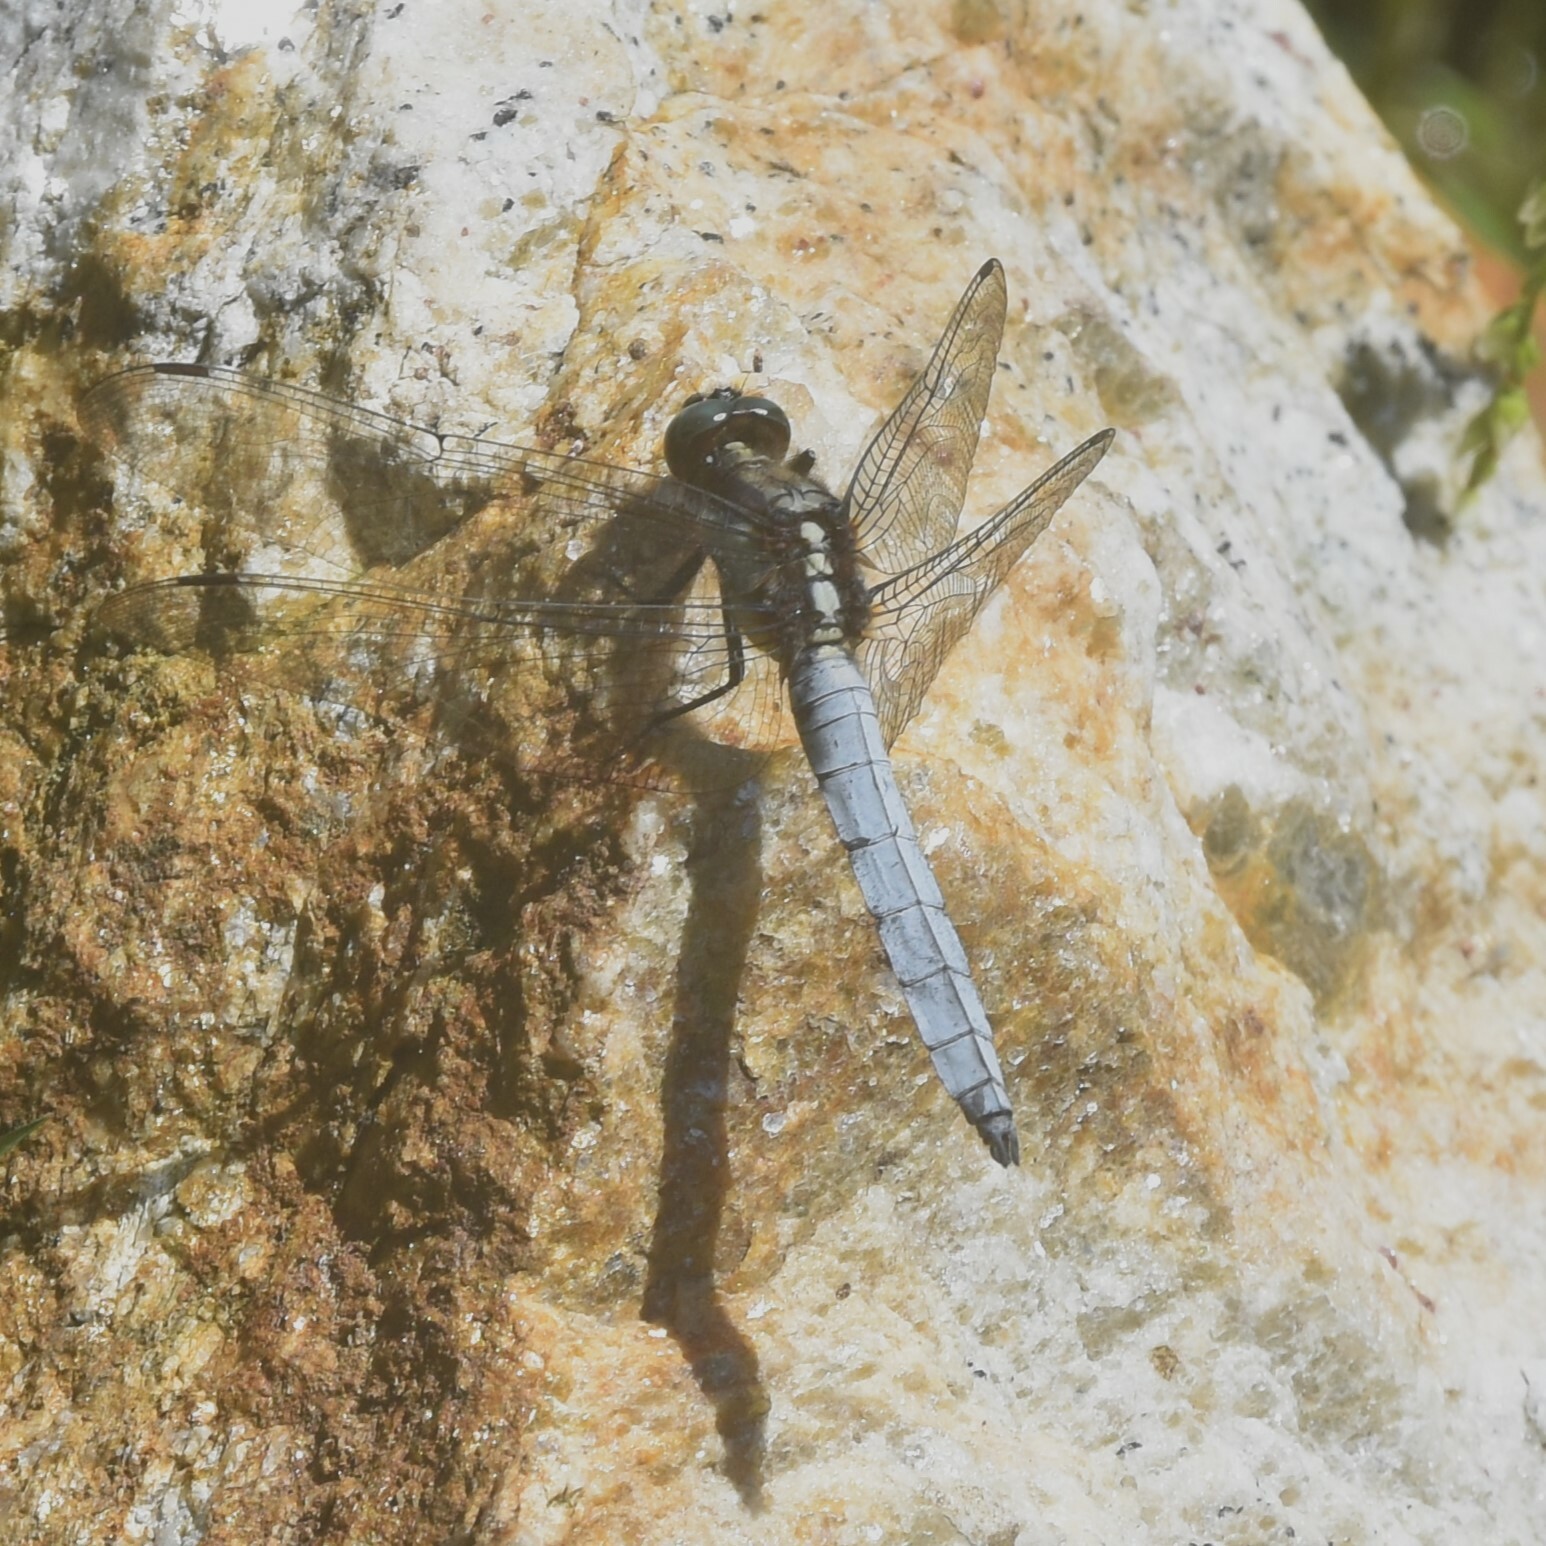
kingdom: Animalia
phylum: Arthropoda
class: Insecta
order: Odonata
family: Libellulidae
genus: Orthetrum
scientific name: Orthetrum internum
